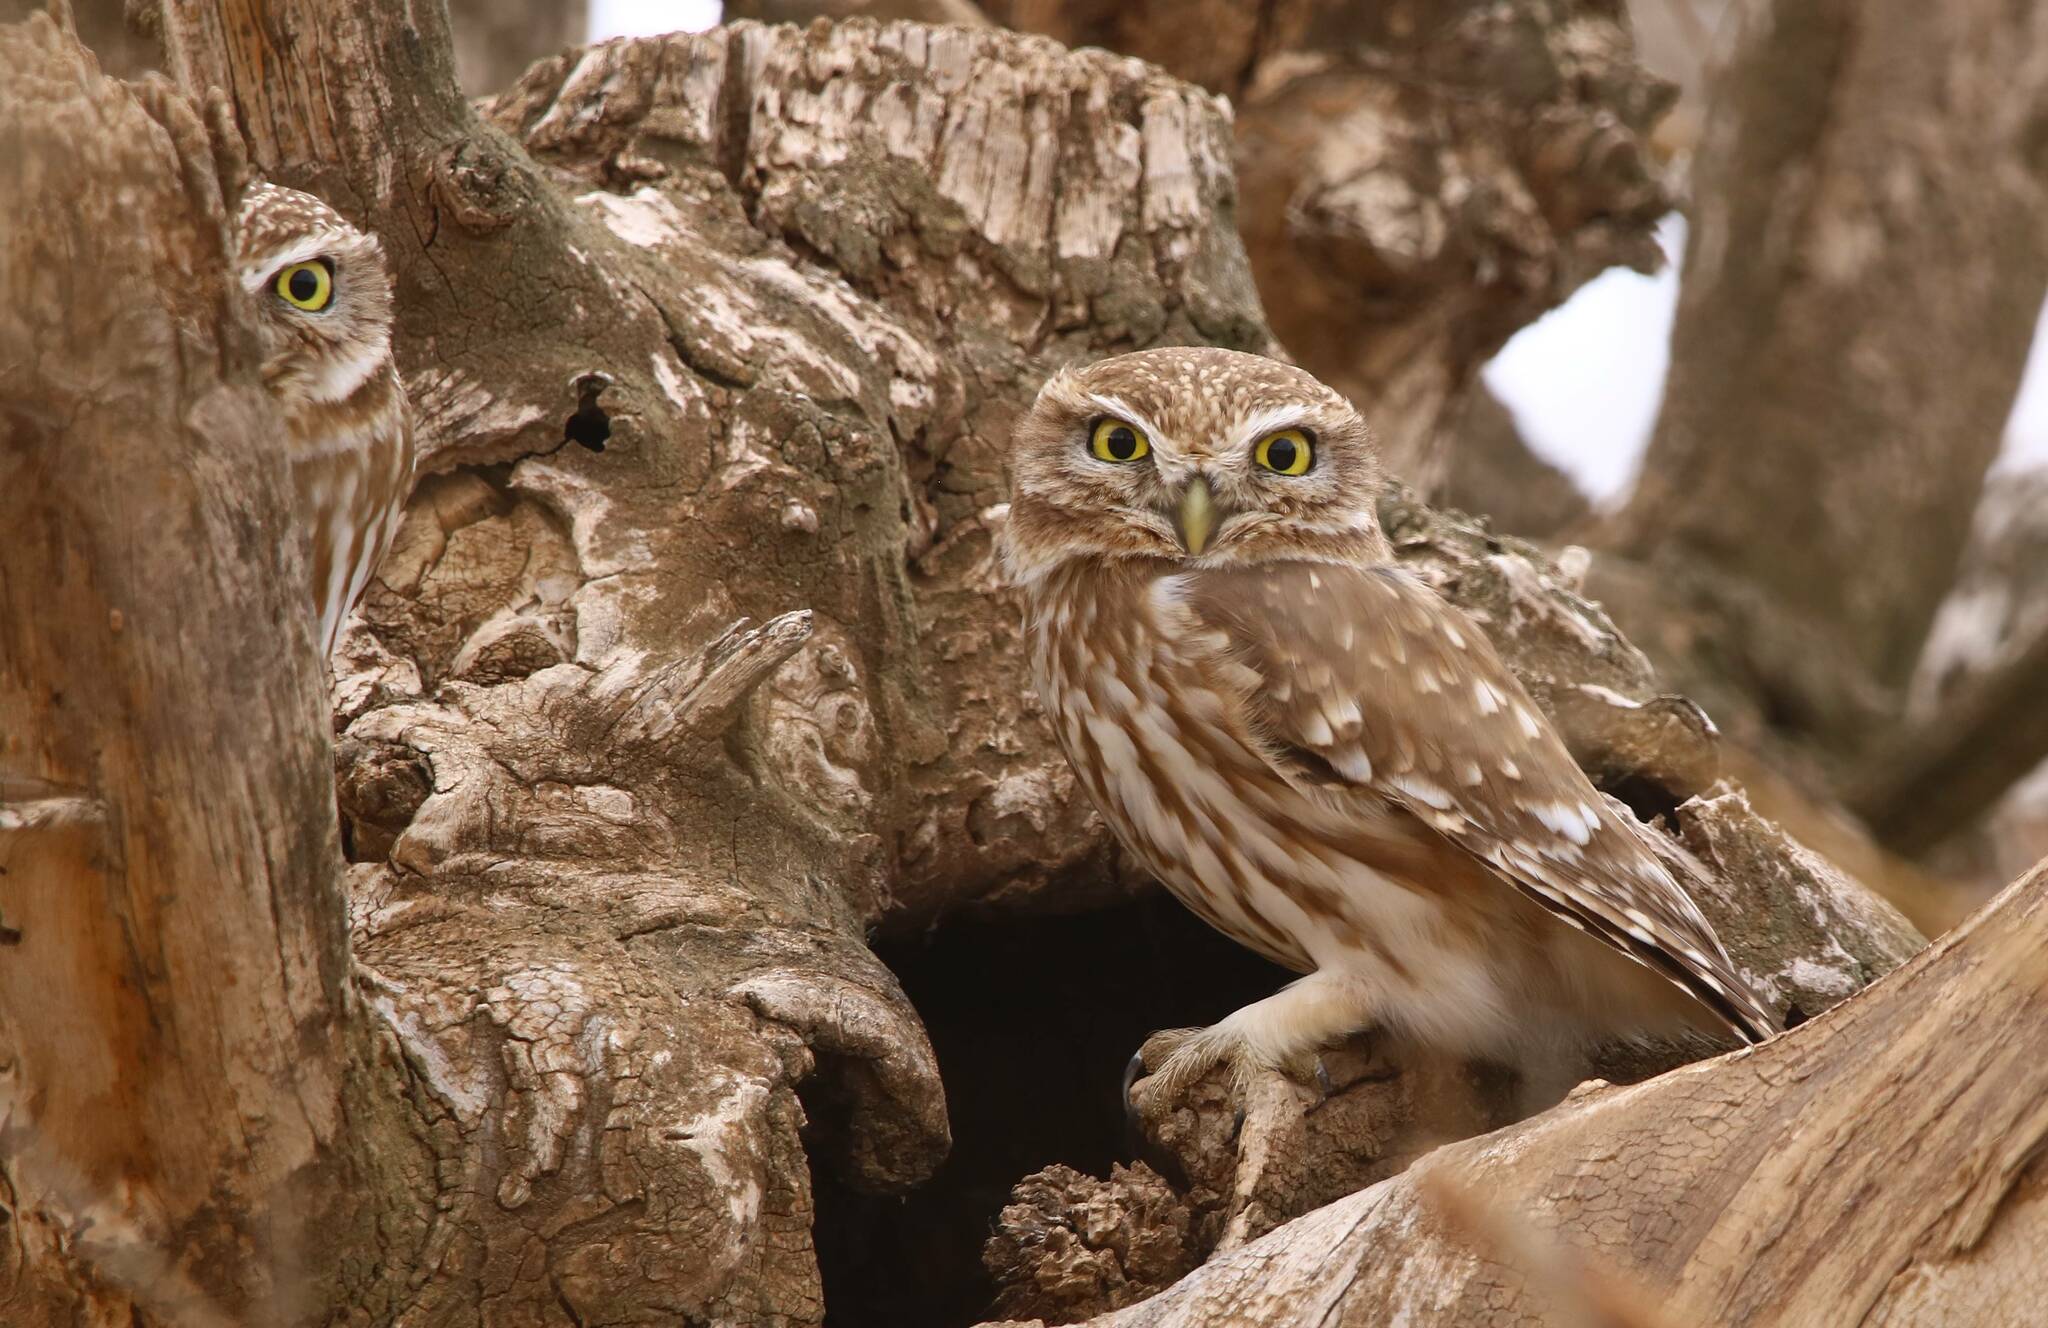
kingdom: Animalia
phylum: Chordata
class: Aves
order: Strigiformes
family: Strigidae
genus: Athene
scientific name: Athene noctua
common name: Little owl
